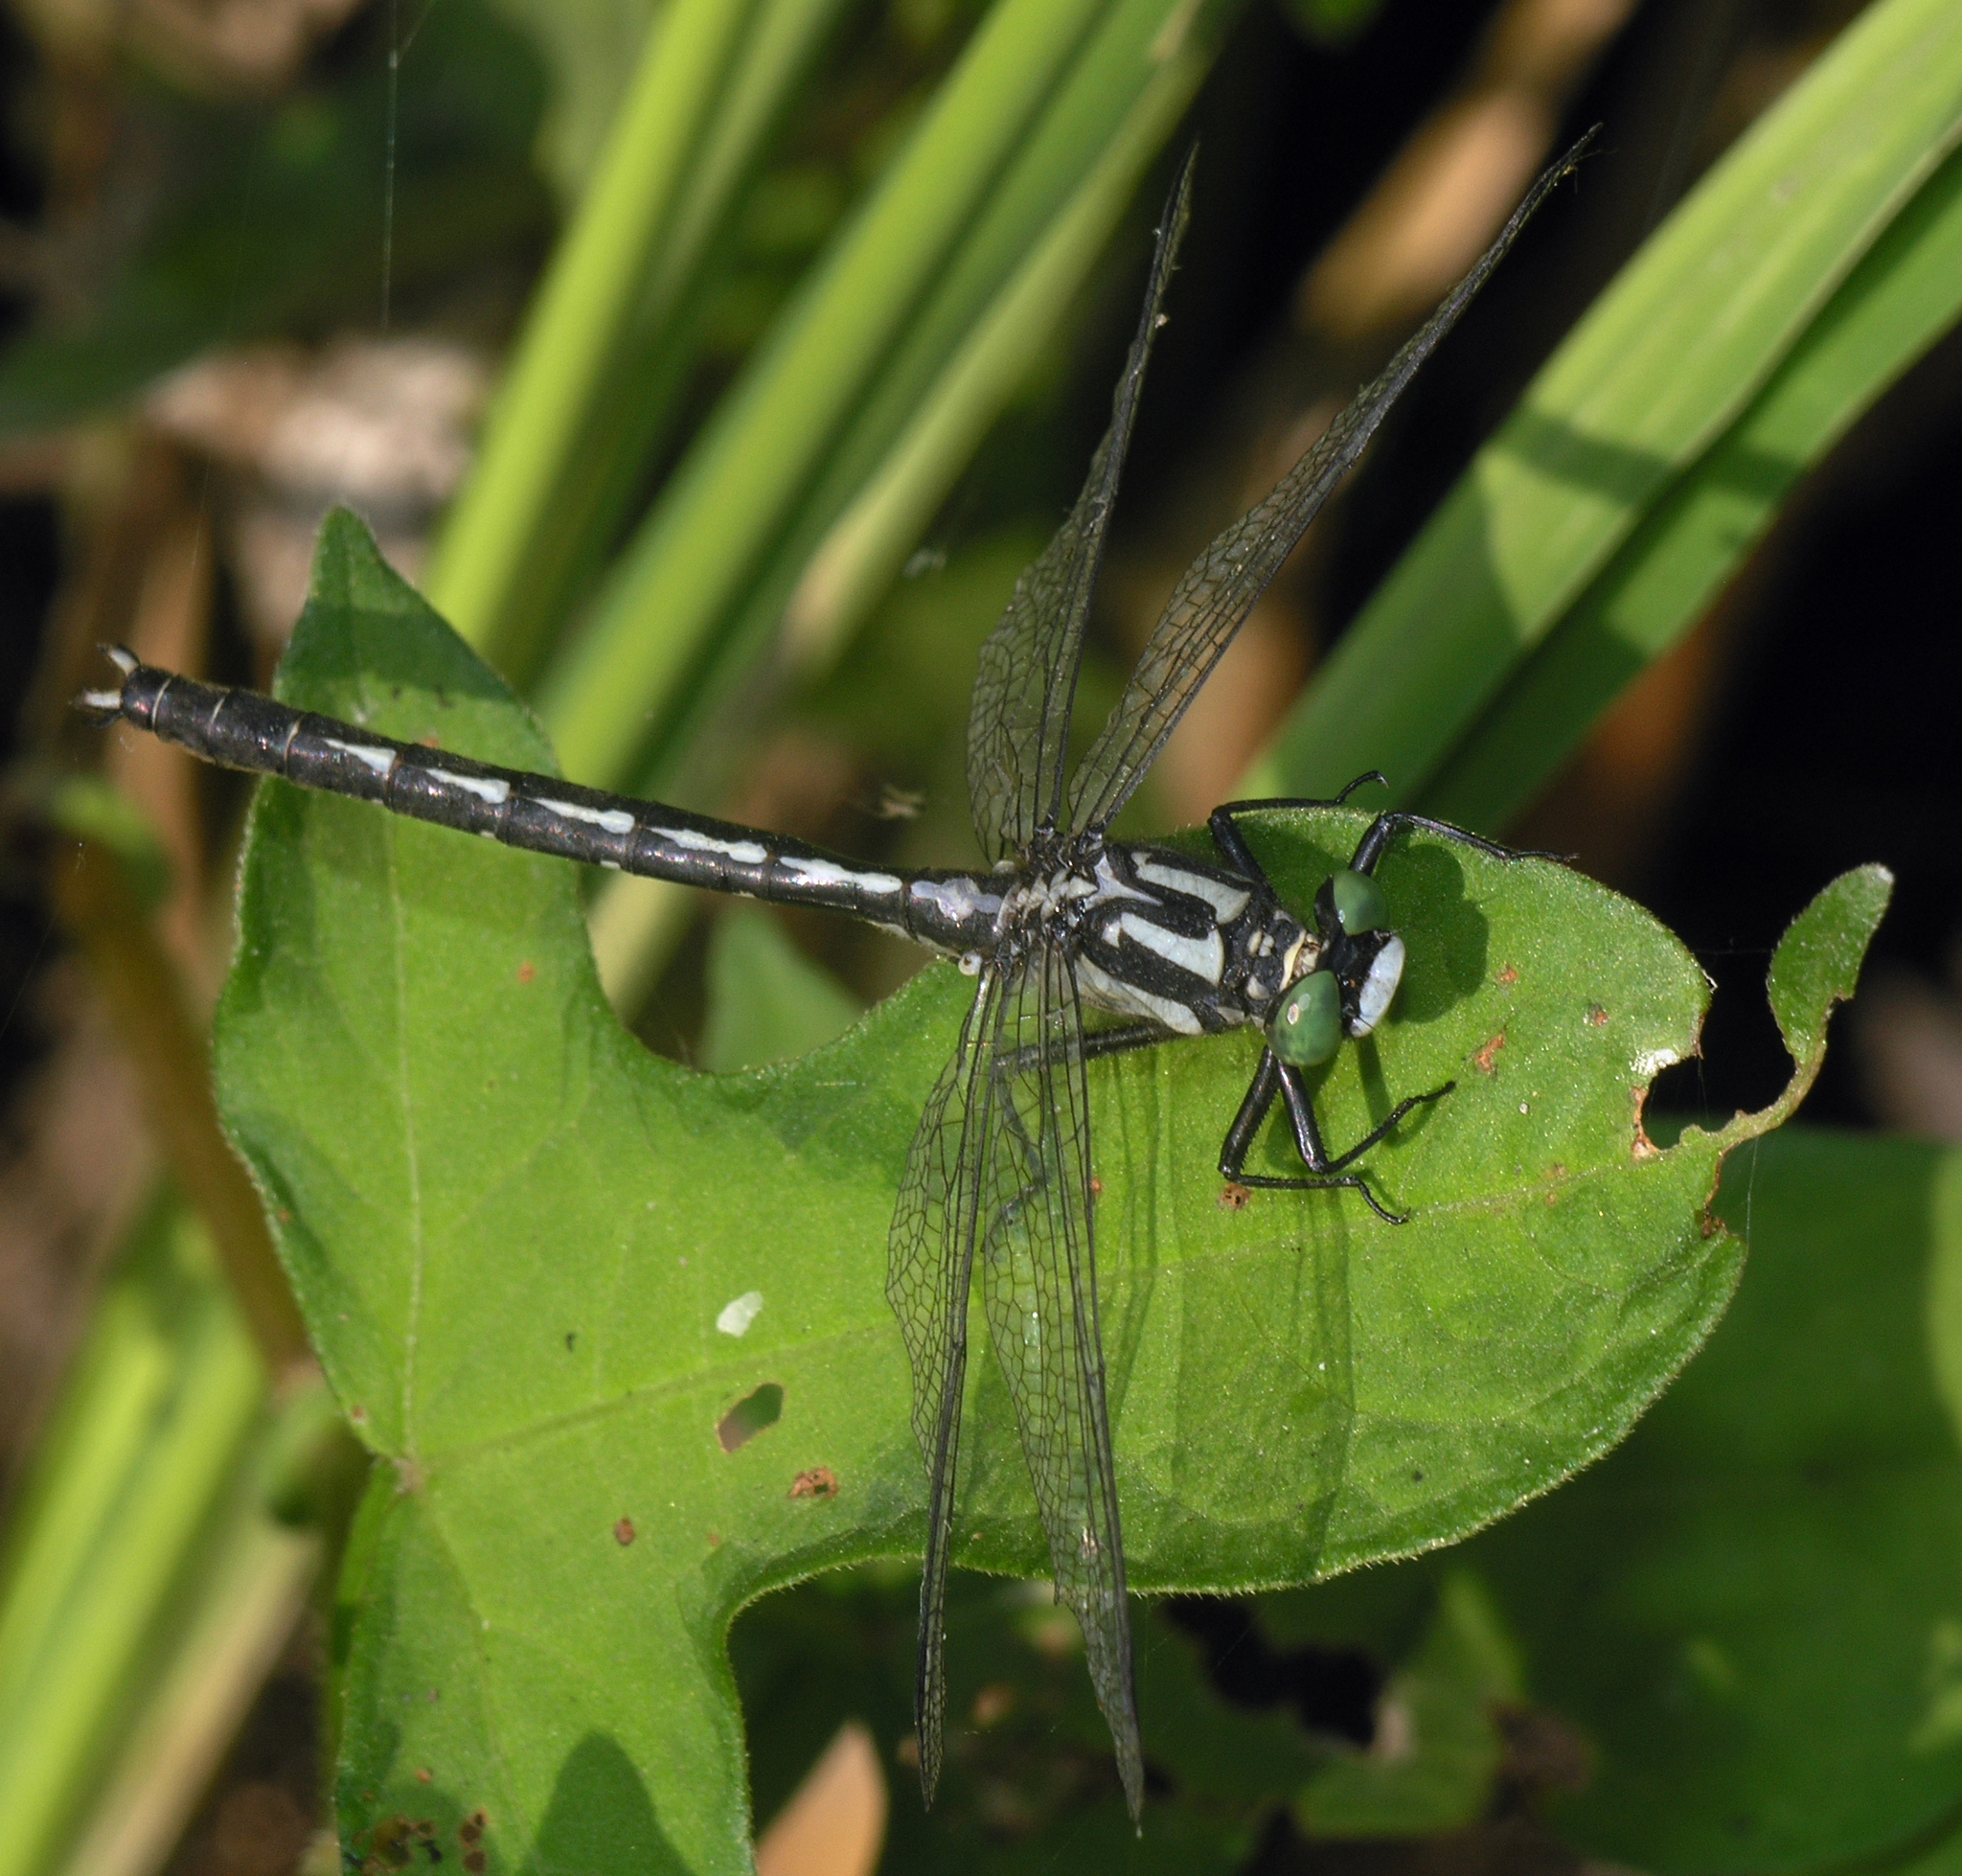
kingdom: Animalia
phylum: Arthropoda
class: Insecta
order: Odonata
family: Gomphidae
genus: Trigomphus
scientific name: Trigomphus citimus
